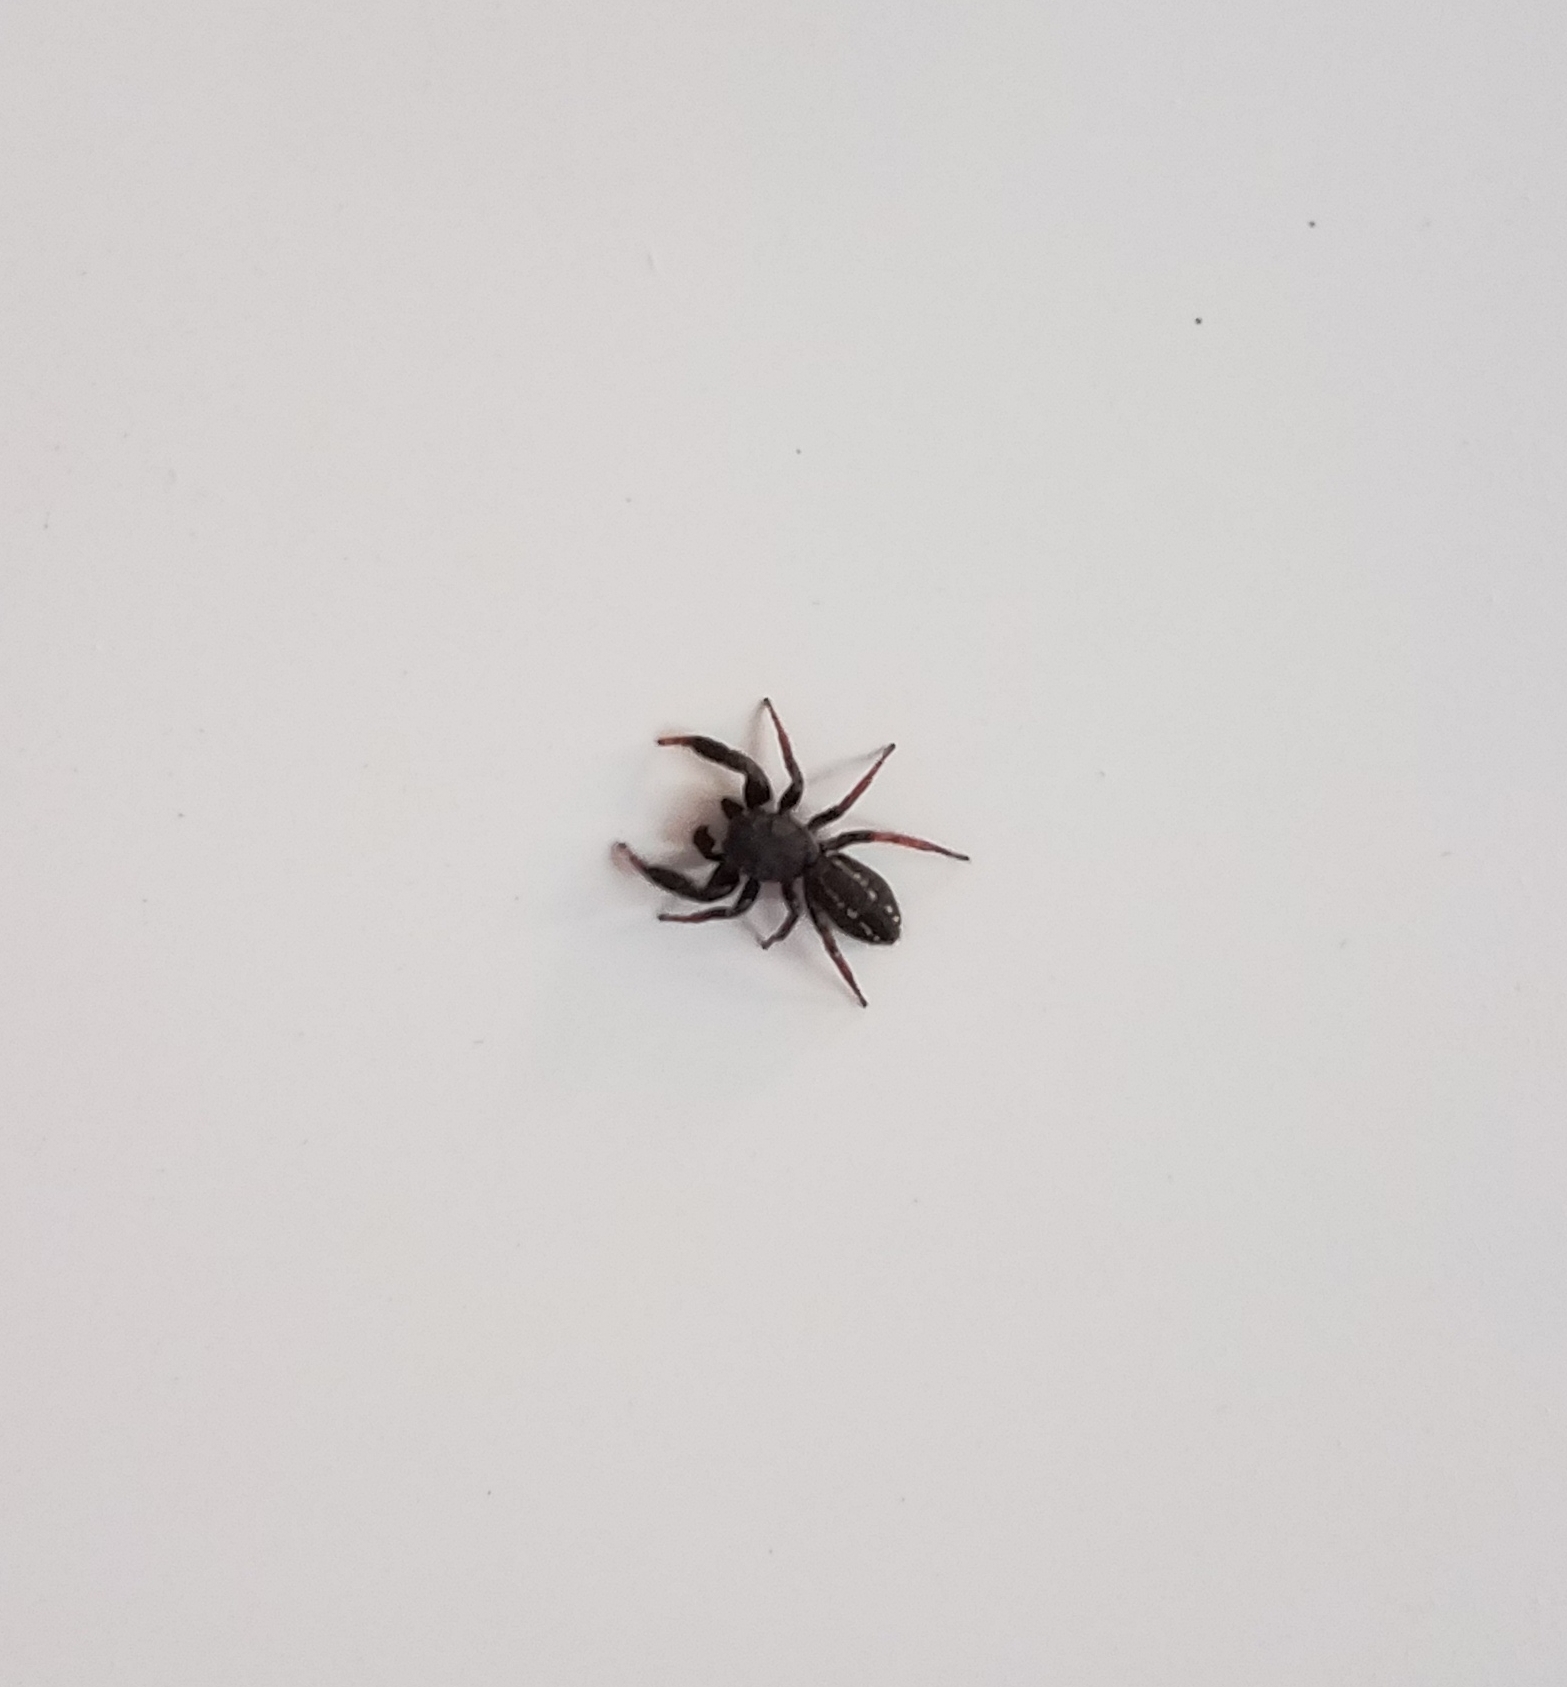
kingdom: Animalia
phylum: Arthropoda
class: Arachnida
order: Araneae
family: Salticidae
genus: Metacyrba
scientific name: Metacyrba taeniola
